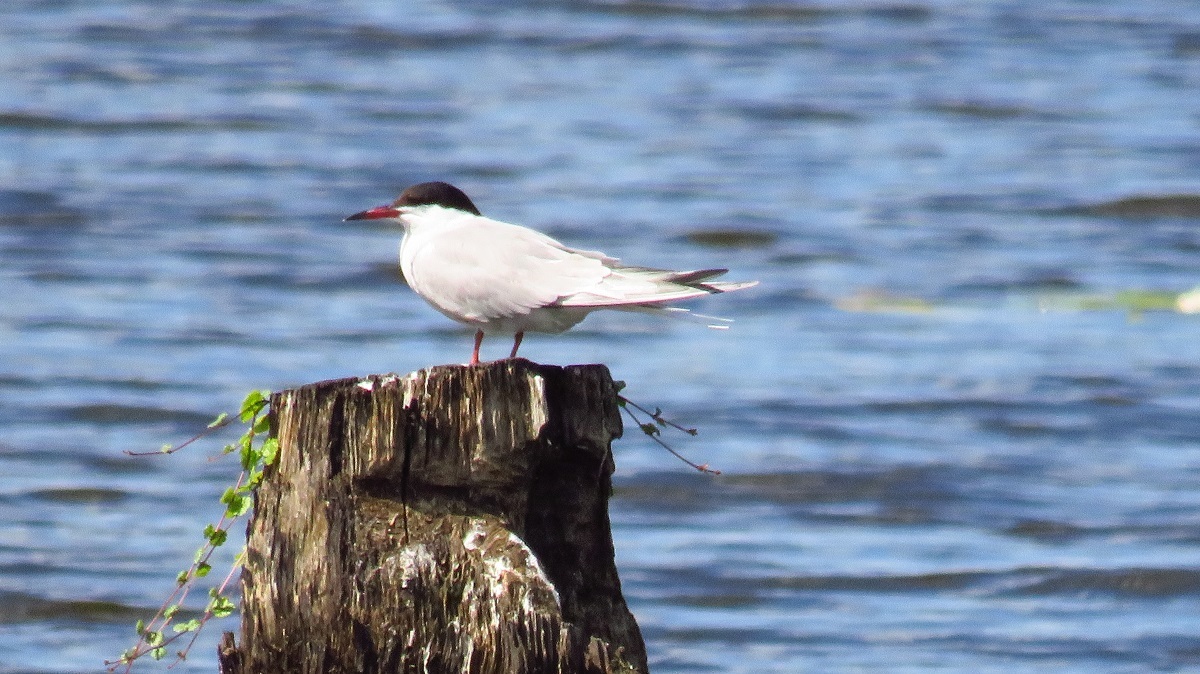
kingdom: Animalia
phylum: Chordata
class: Aves
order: Charadriiformes
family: Laridae
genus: Sterna
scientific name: Sterna hirundo
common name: Common tern
